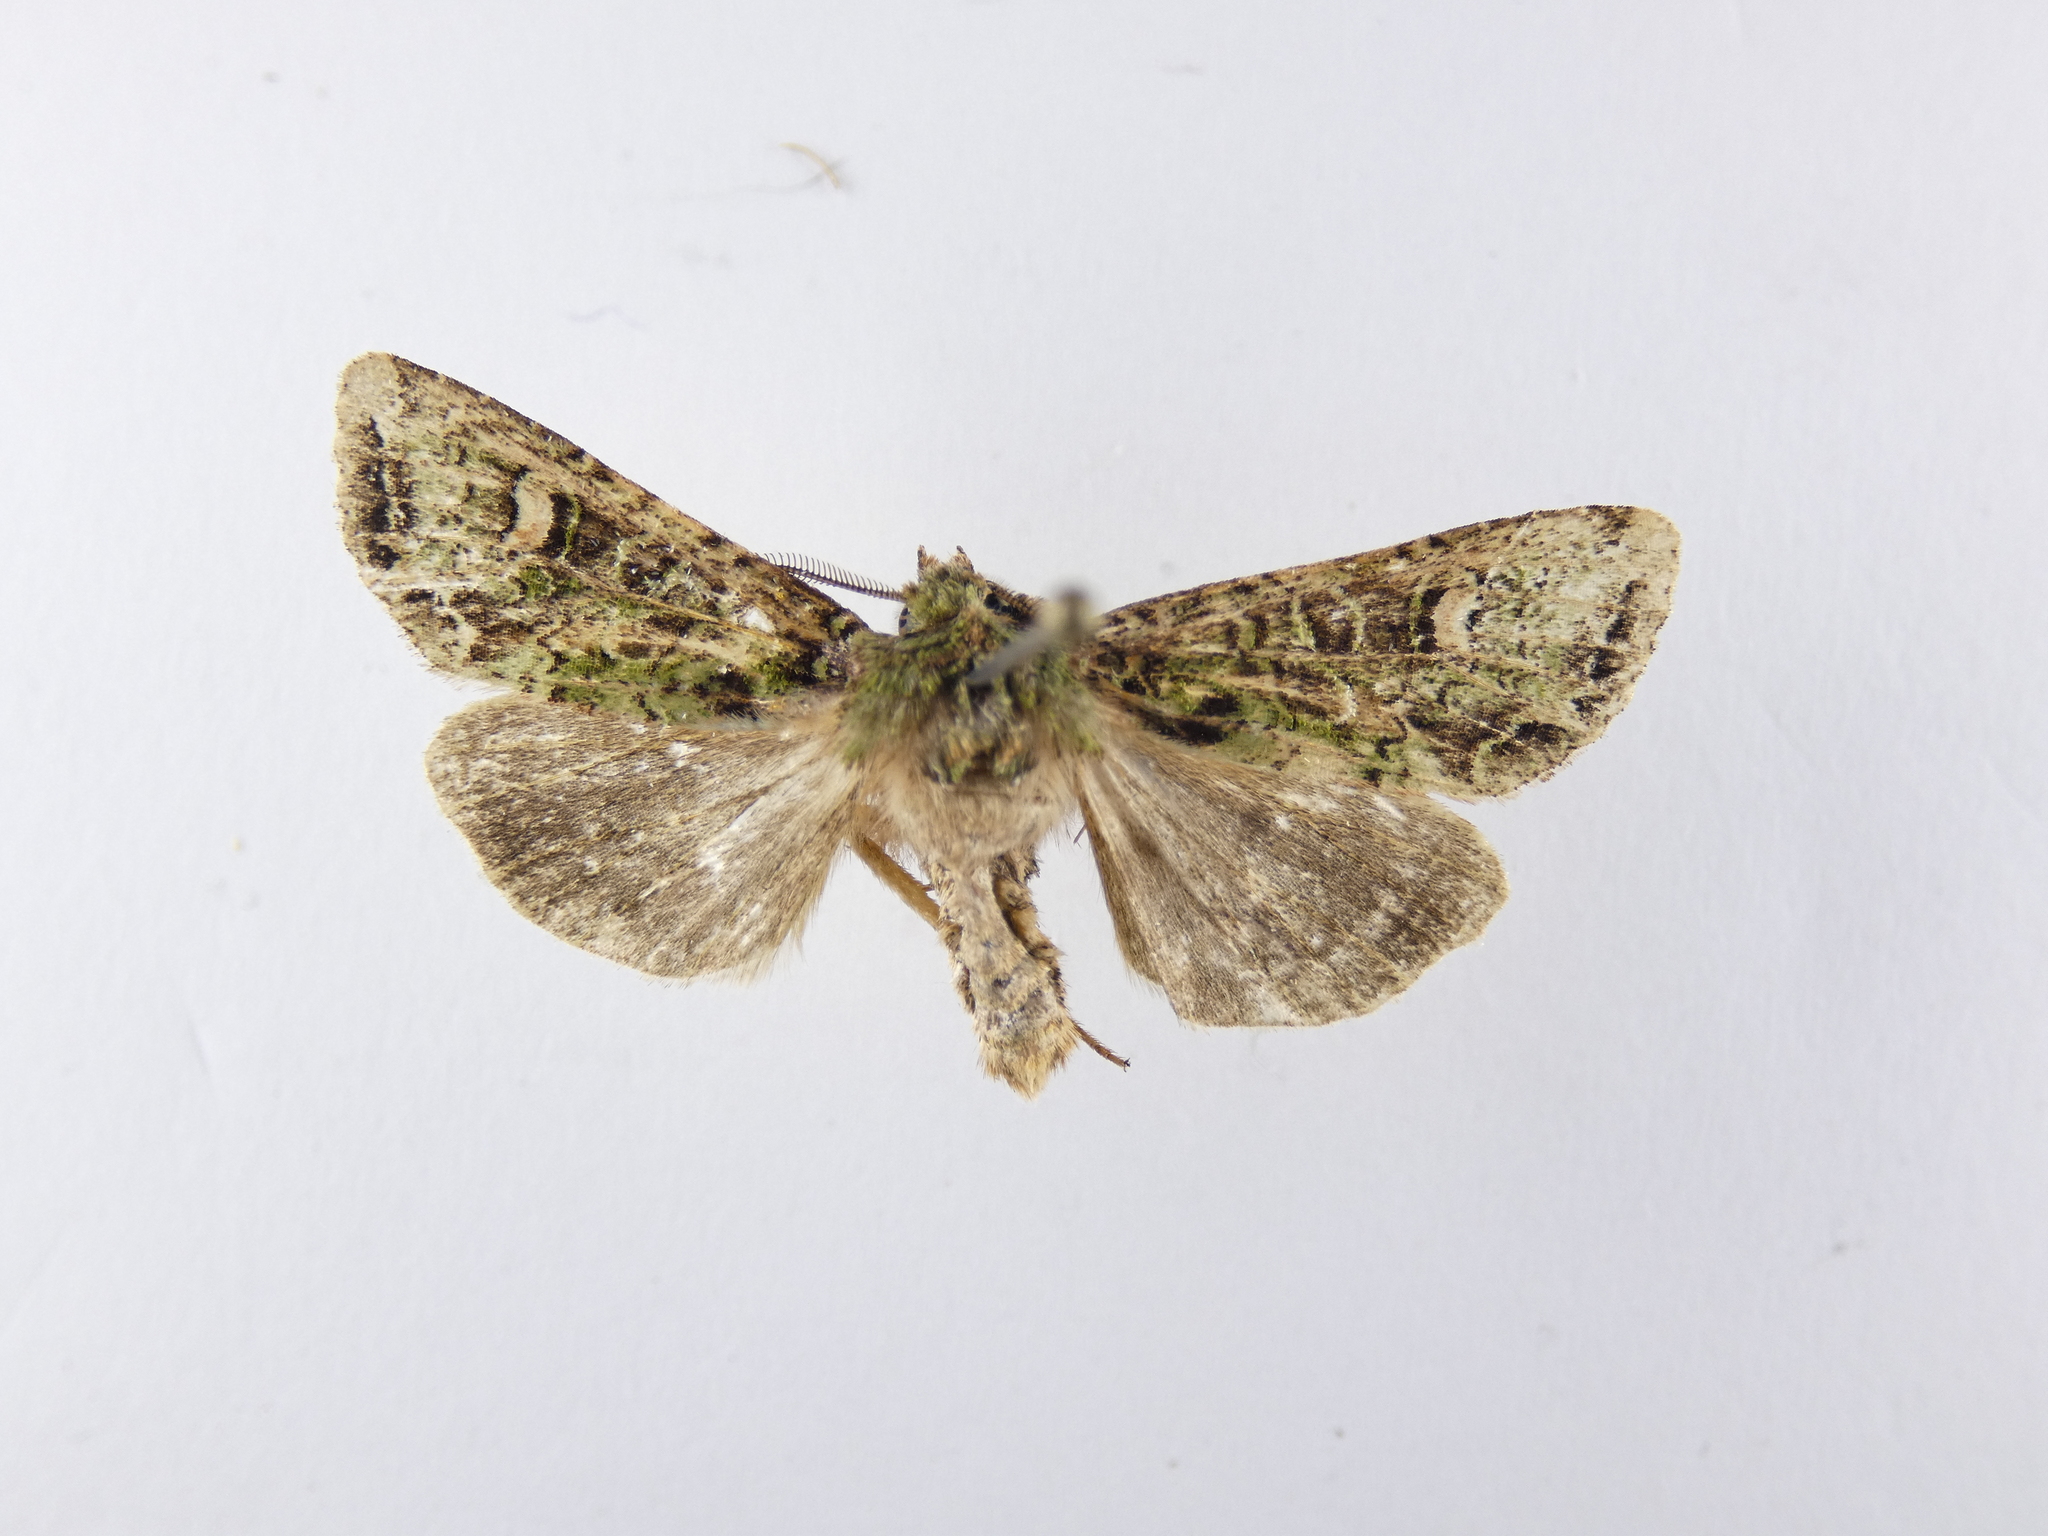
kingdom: Animalia
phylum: Arthropoda
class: Insecta
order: Lepidoptera
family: Noctuidae
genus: Ichneutica
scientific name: Ichneutica
